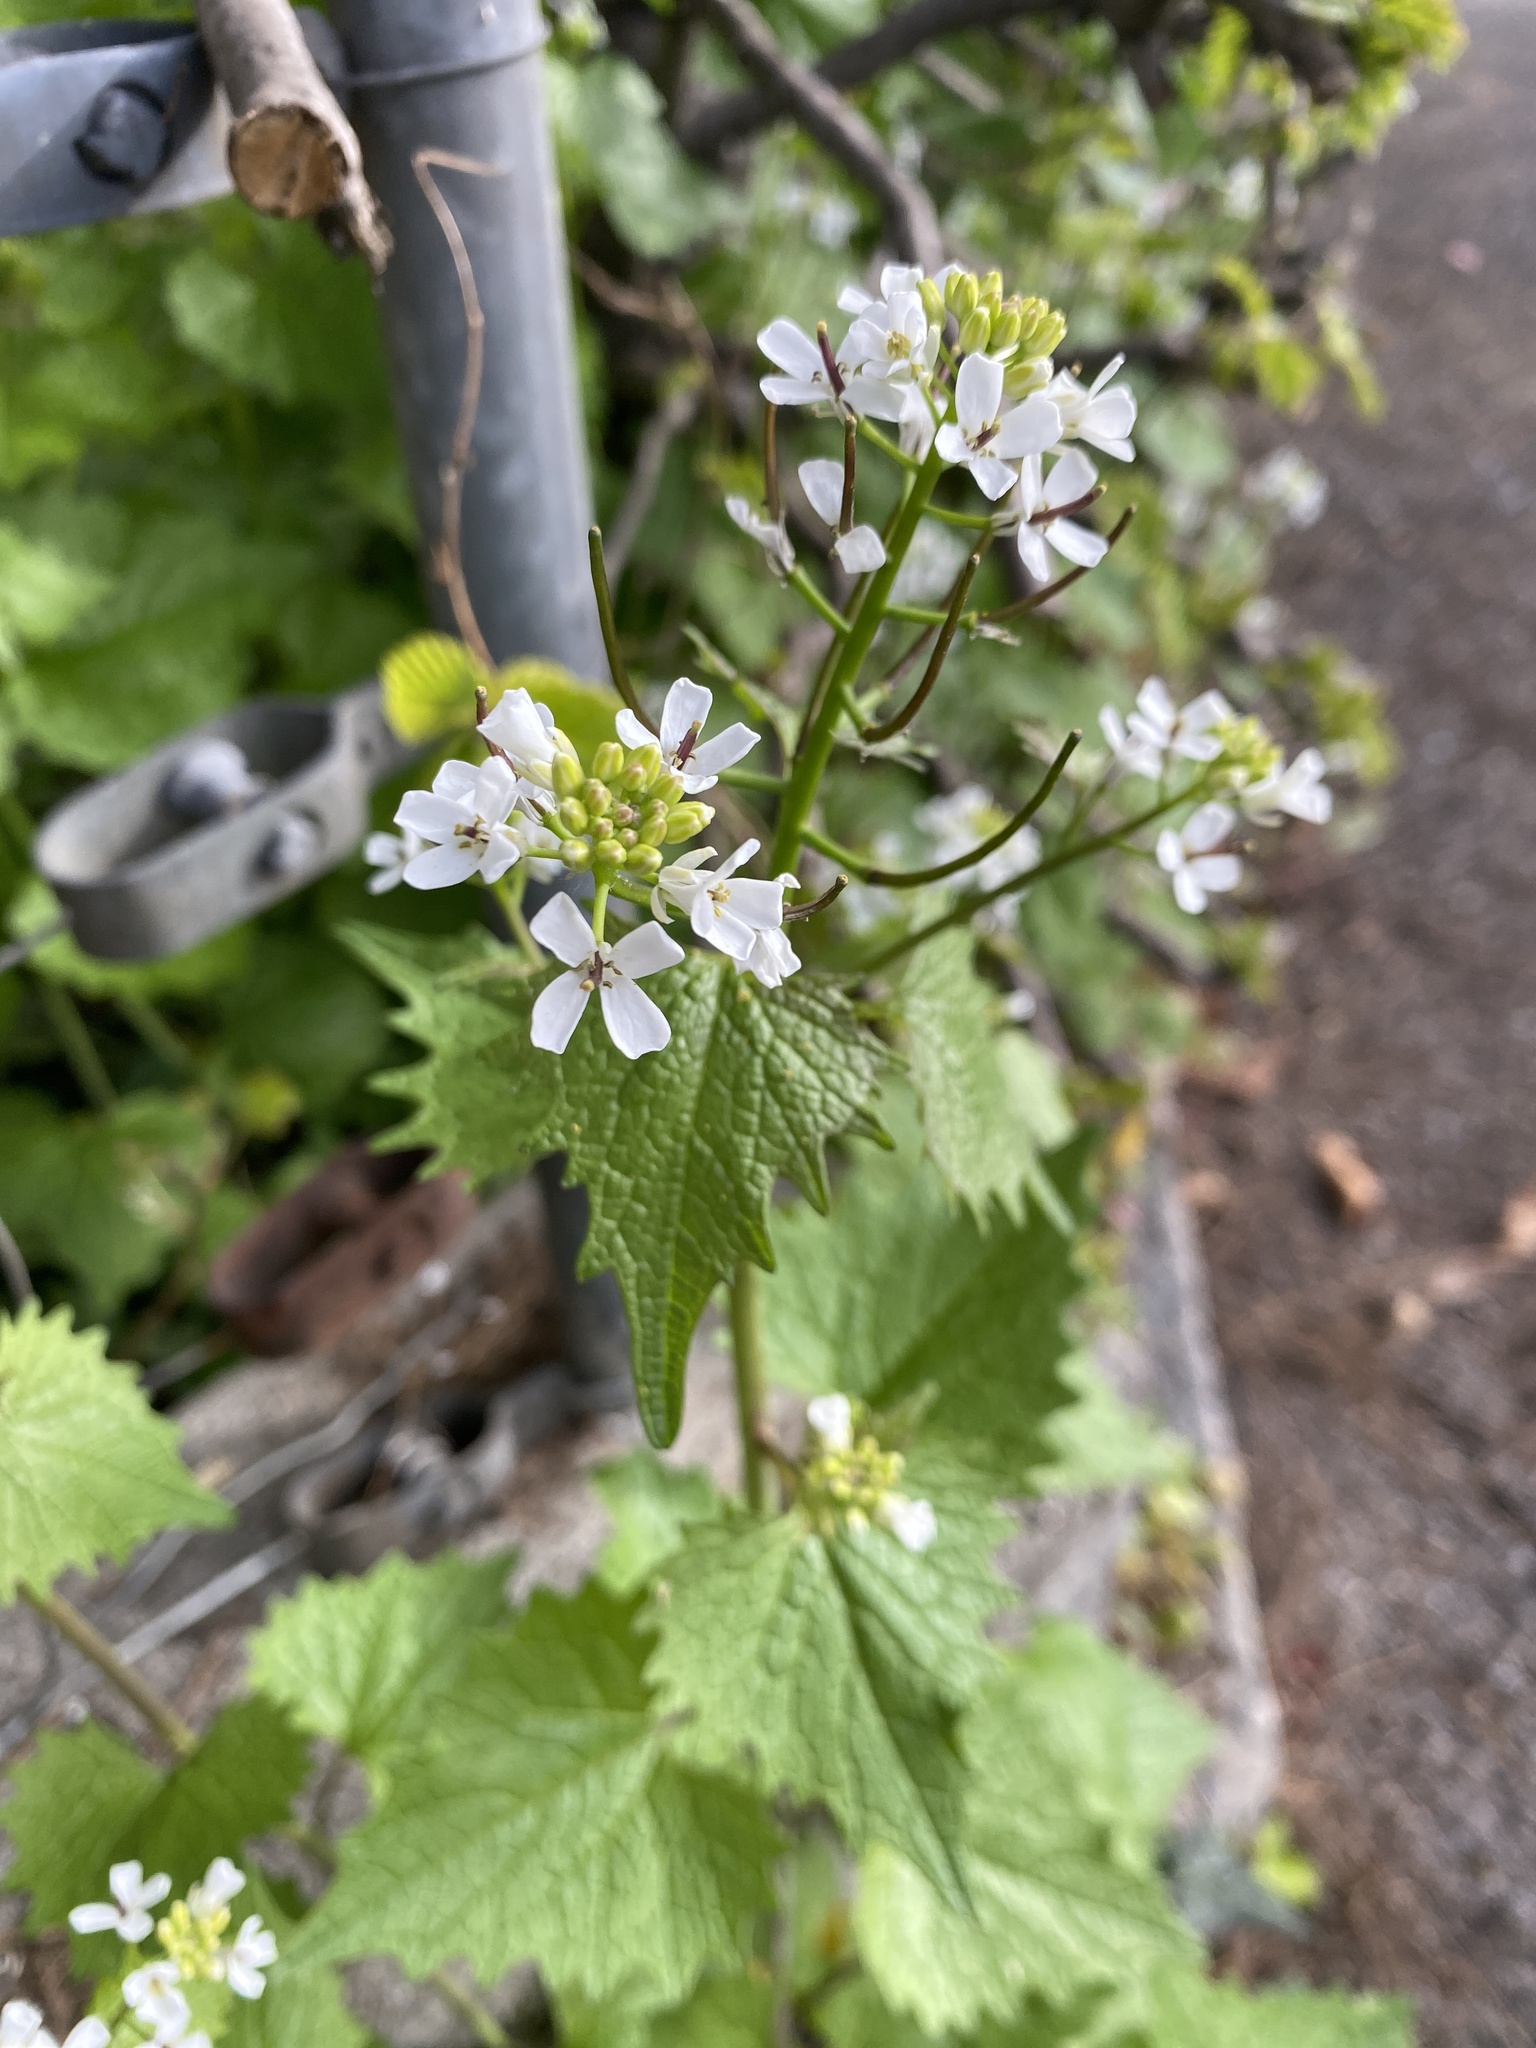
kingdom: Plantae
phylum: Tracheophyta
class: Magnoliopsida
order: Brassicales
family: Brassicaceae
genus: Alliaria
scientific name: Alliaria petiolata
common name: Garlic mustard
